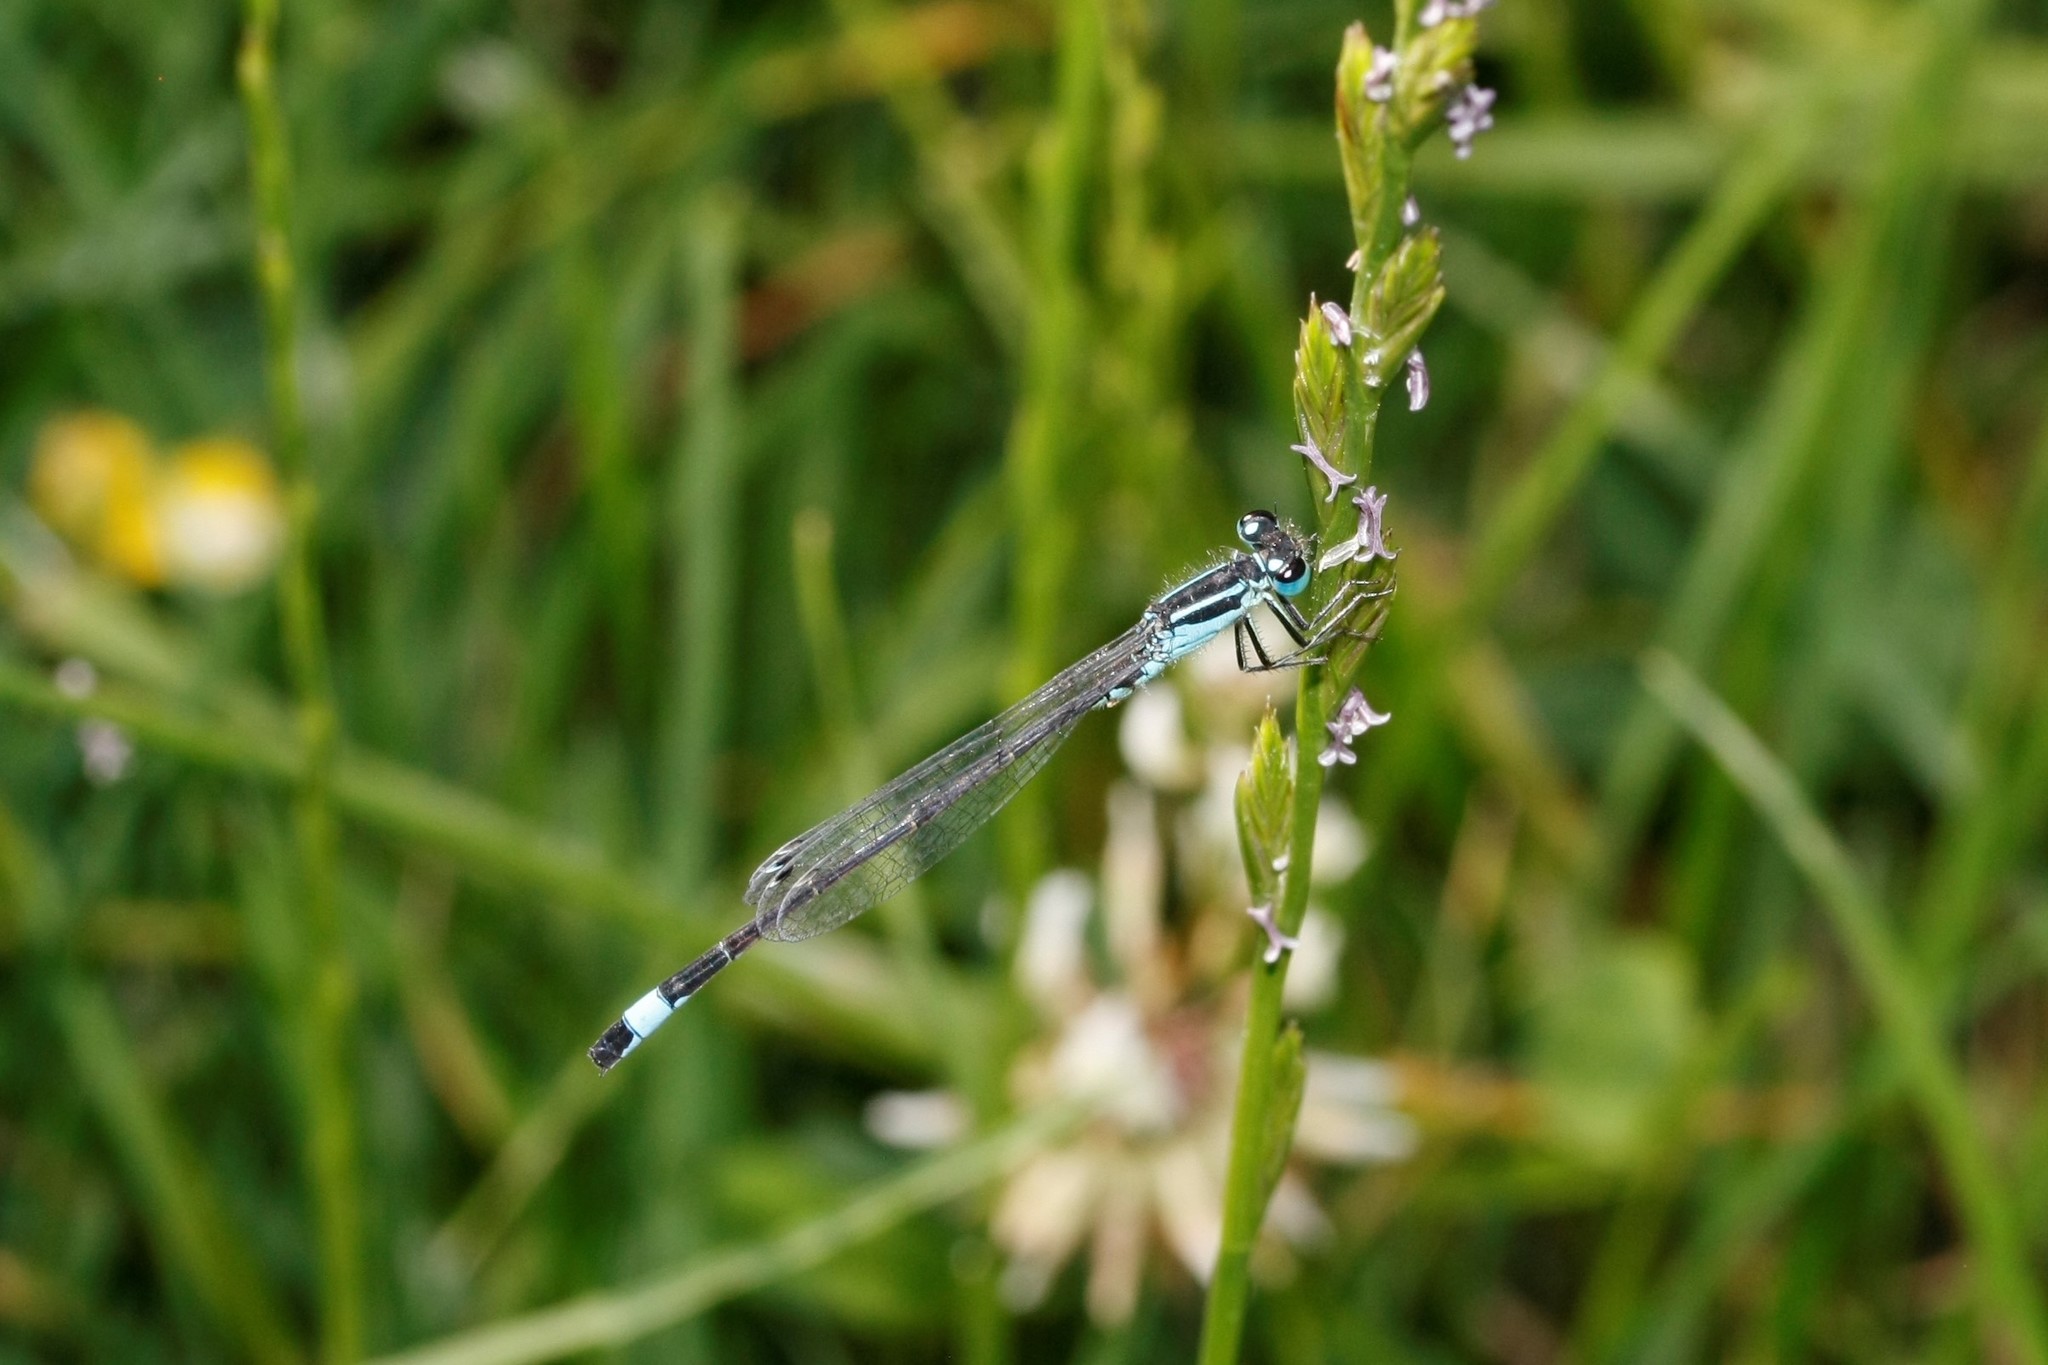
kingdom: Animalia
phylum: Arthropoda
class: Insecta
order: Odonata
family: Coenagrionidae
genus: Ischnura
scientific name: Ischnura elegans
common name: Blue-tailed damselfly
